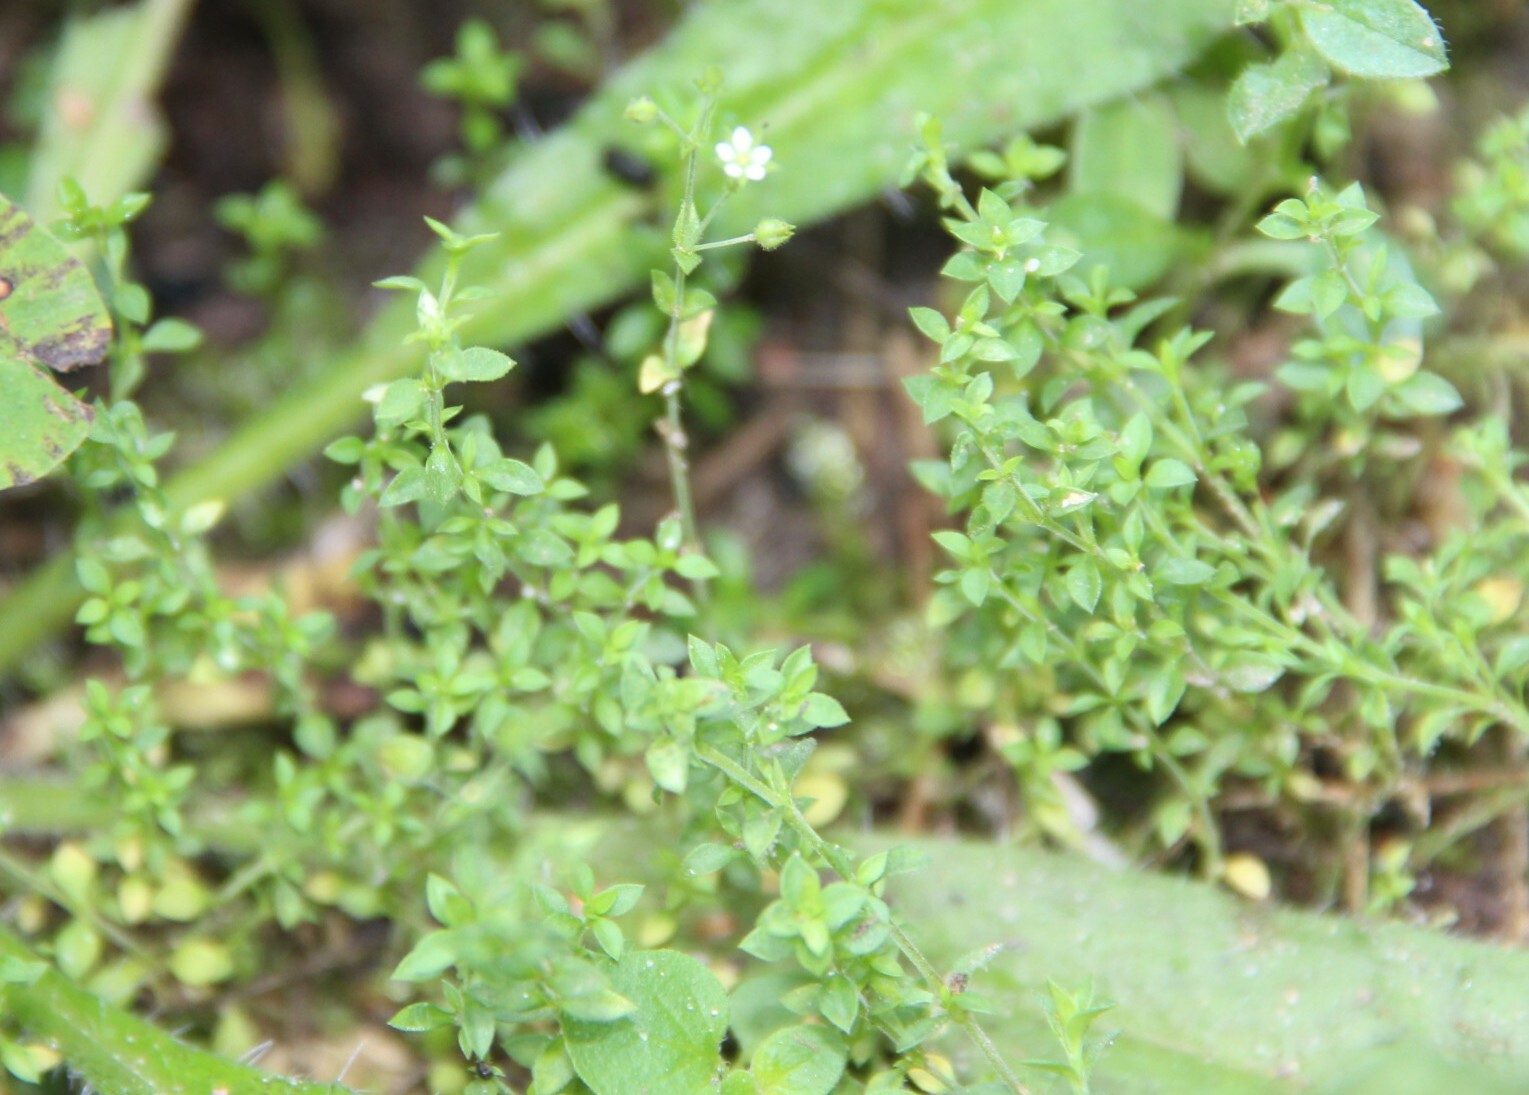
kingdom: Plantae
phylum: Tracheophyta
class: Magnoliopsida
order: Caryophyllales
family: Caryophyllaceae
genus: Arenaria
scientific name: Arenaria serpyllifolia
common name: Thyme-leaved sandwort
